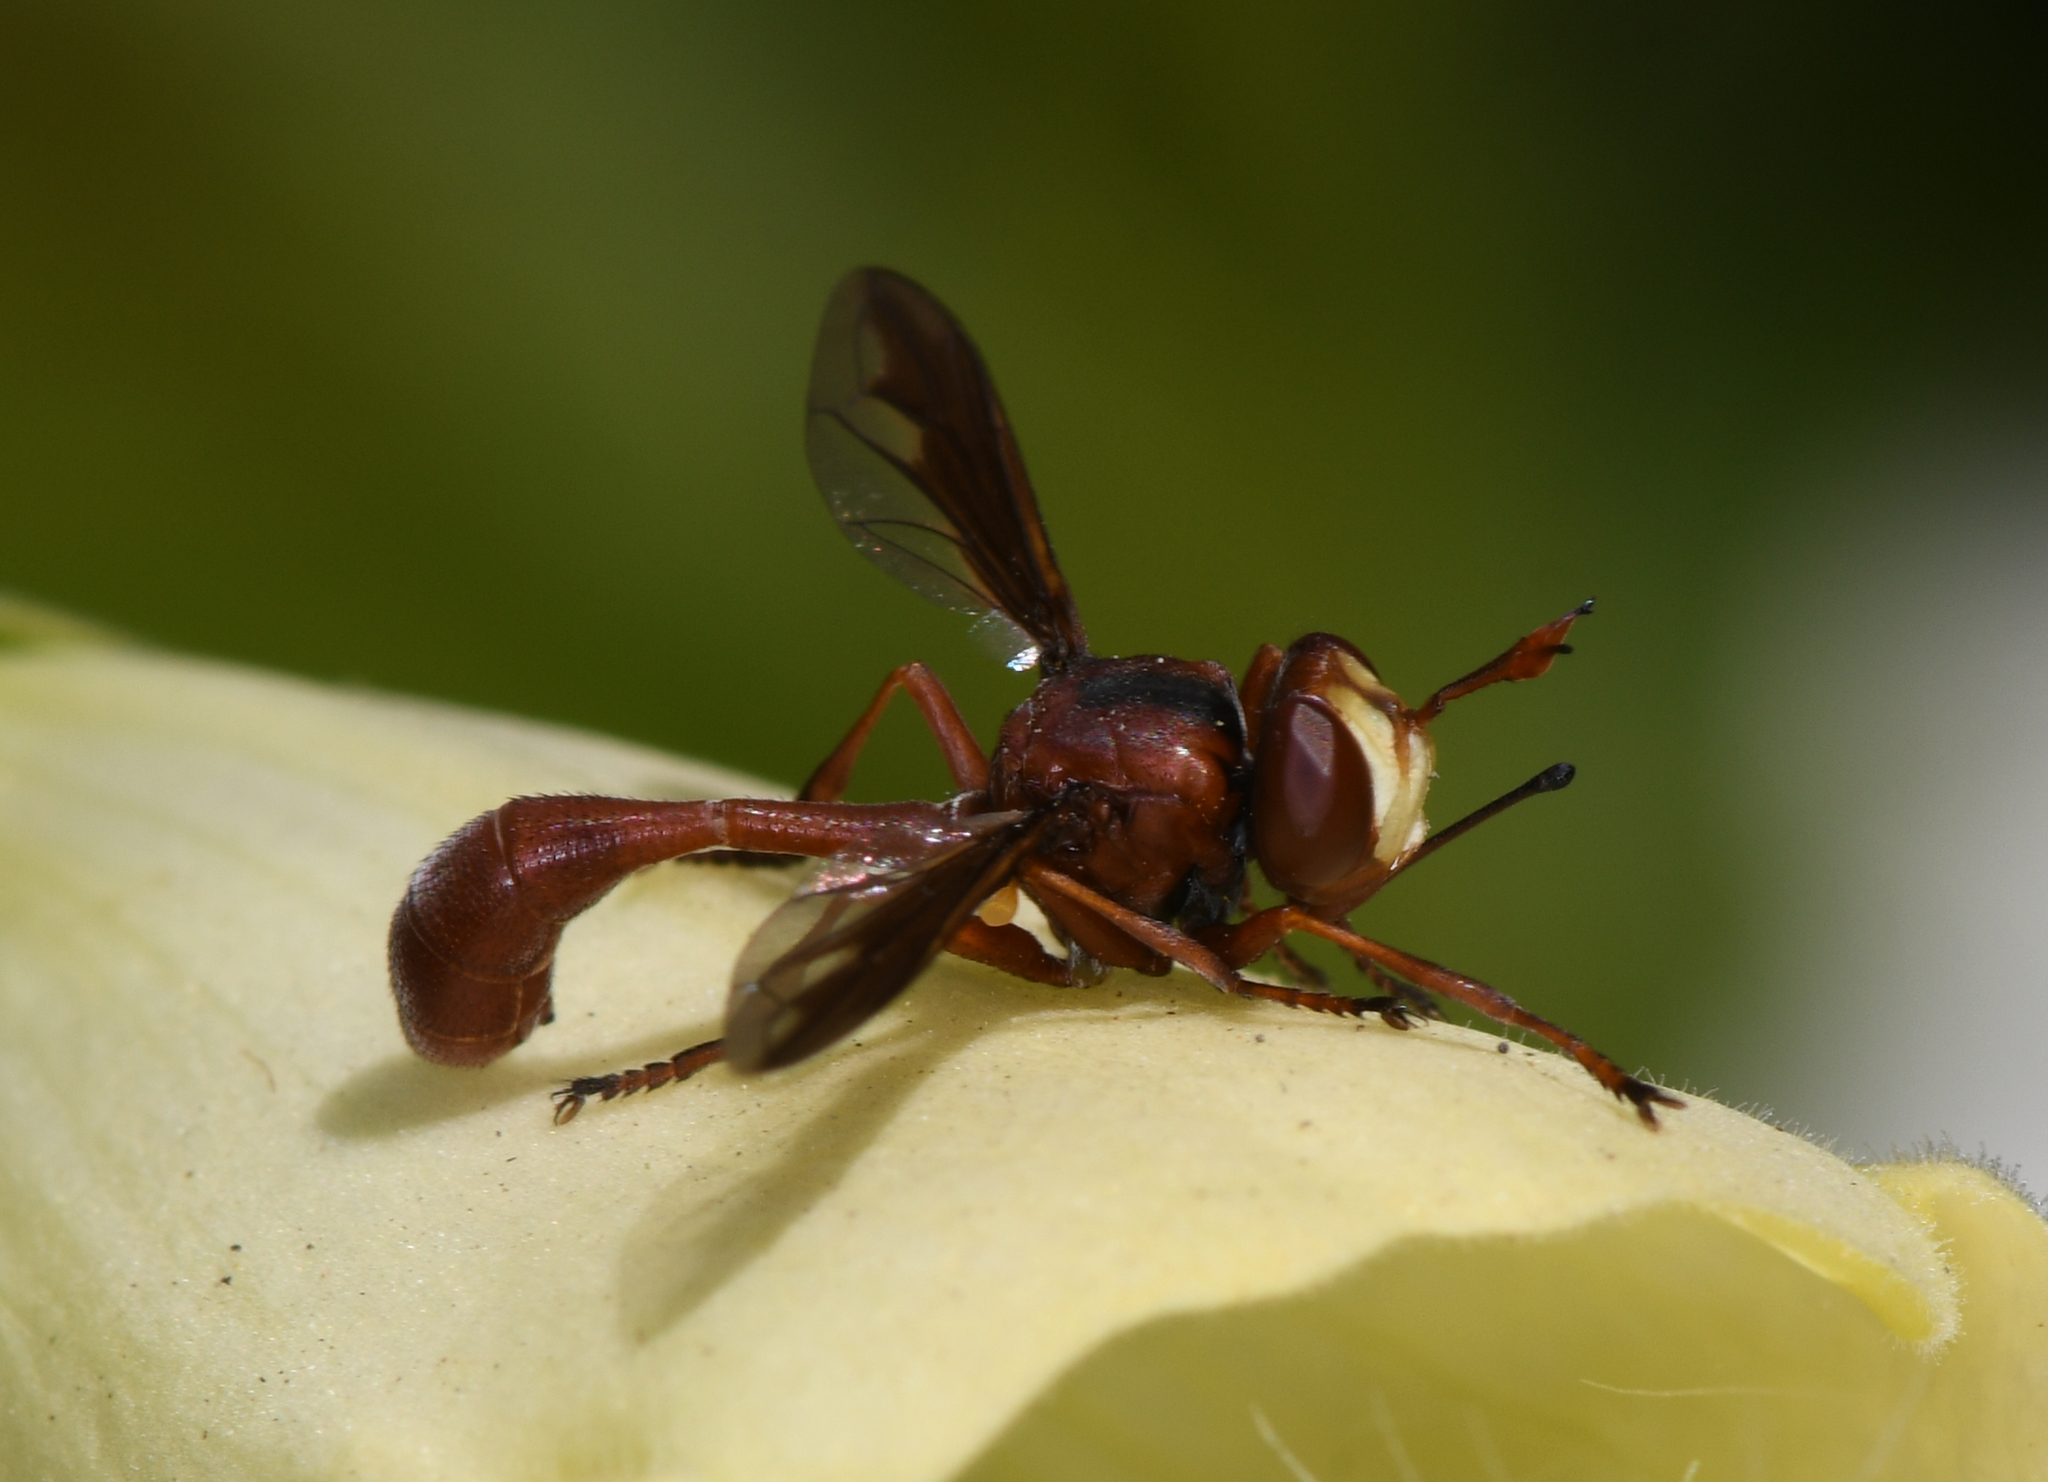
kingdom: Animalia
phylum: Arthropoda
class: Insecta
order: Diptera
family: Conopidae
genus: Physocephala
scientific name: Physocephala burgessi
